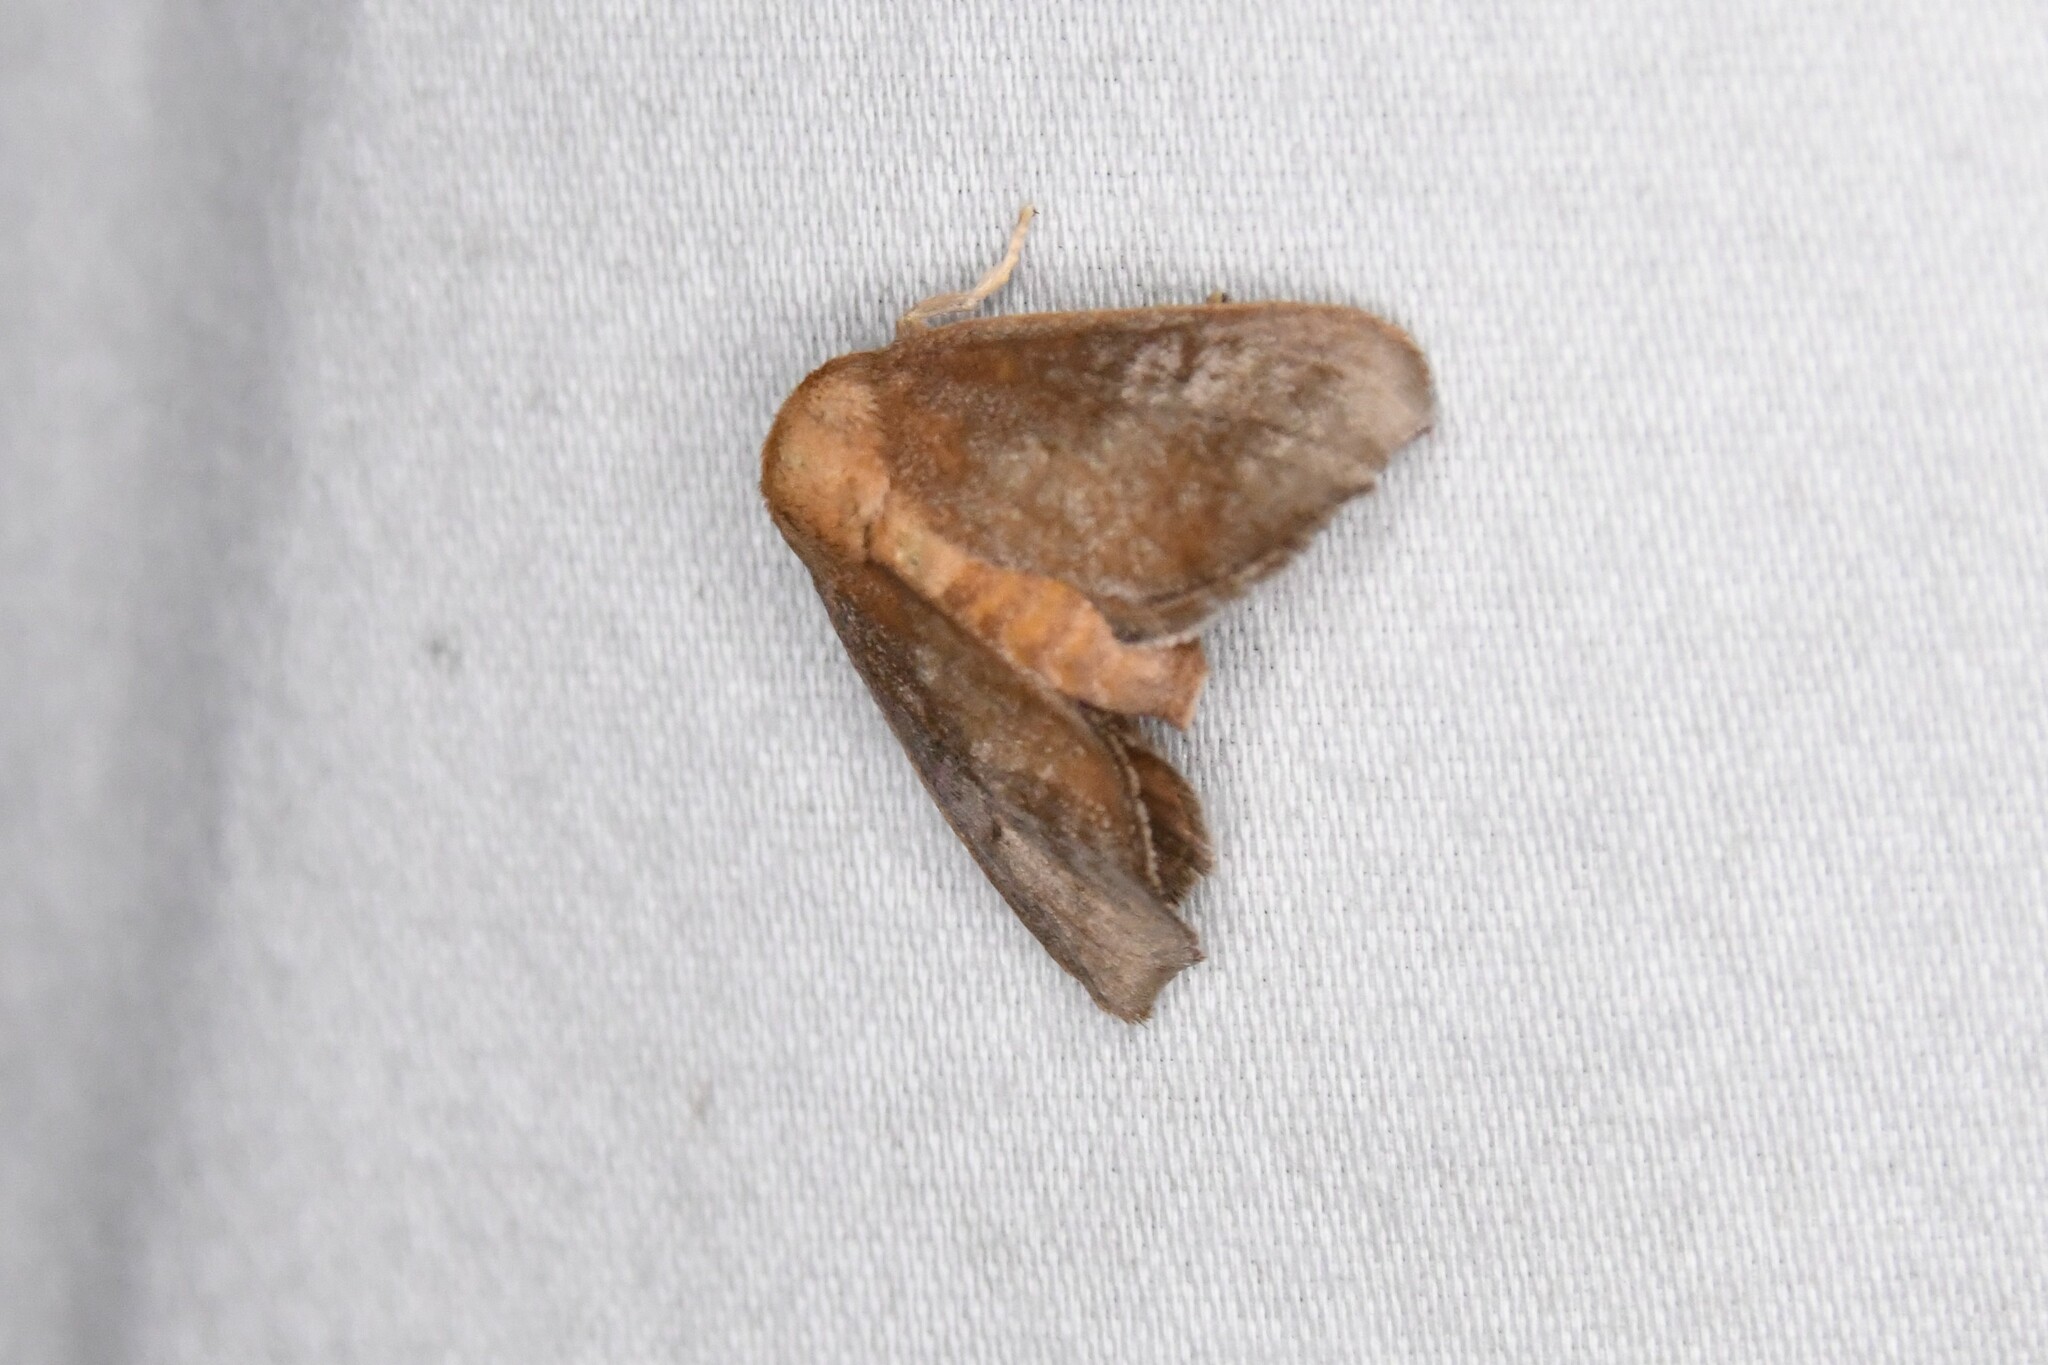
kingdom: Animalia
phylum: Arthropoda
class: Insecta
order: Lepidoptera
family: Limacodidae
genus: Isa
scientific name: Isa textula
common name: Crowned slug moth
